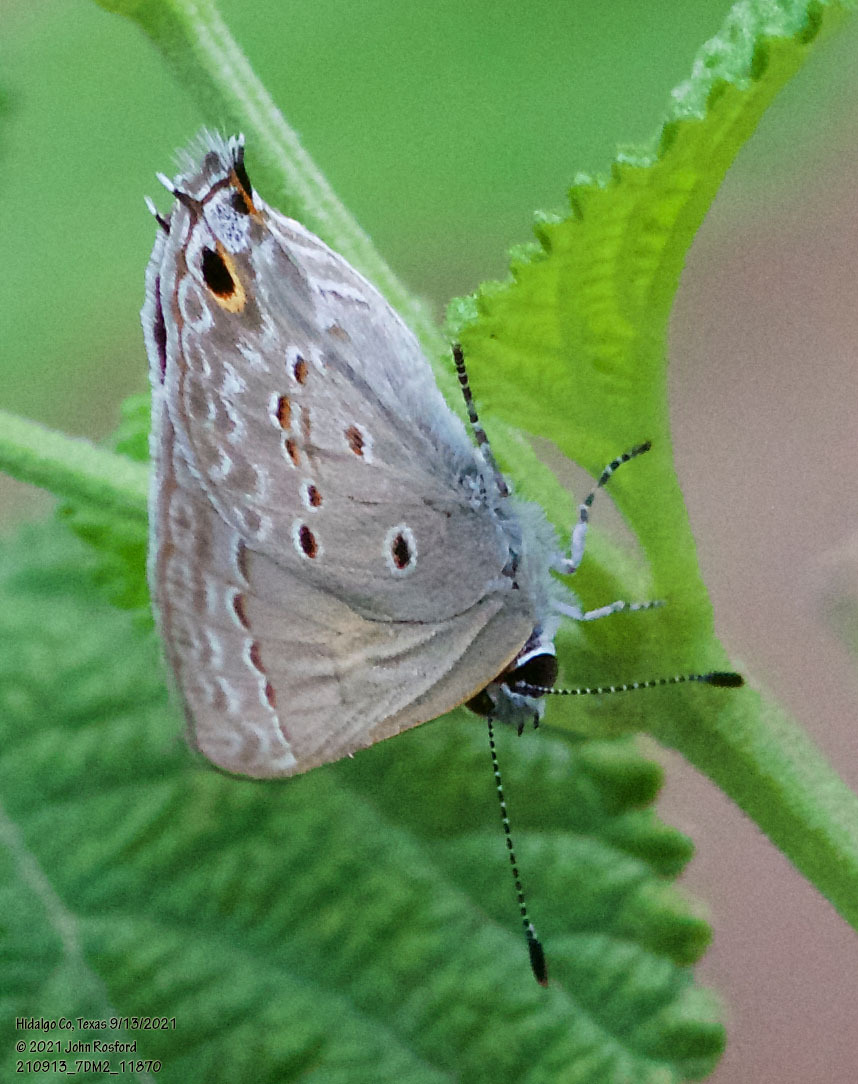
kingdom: Animalia
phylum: Arthropoda
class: Insecta
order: Lepidoptera
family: Lycaenidae
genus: Callicista
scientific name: Callicista columella
